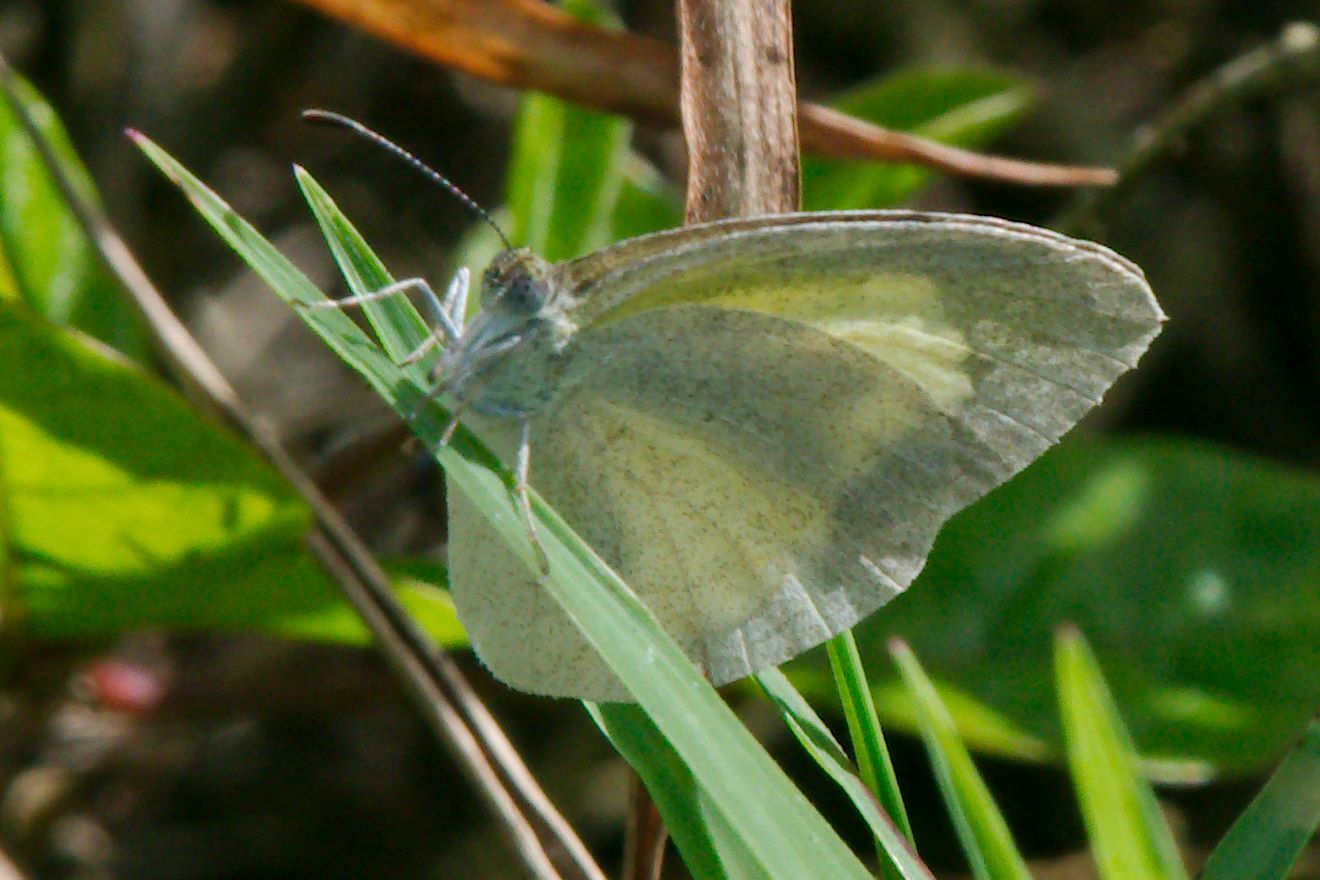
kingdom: Animalia
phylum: Arthropoda
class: Insecta
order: Lepidoptera
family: Pieridae
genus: Eurema
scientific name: Eurema daira
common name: Barred sulphur
